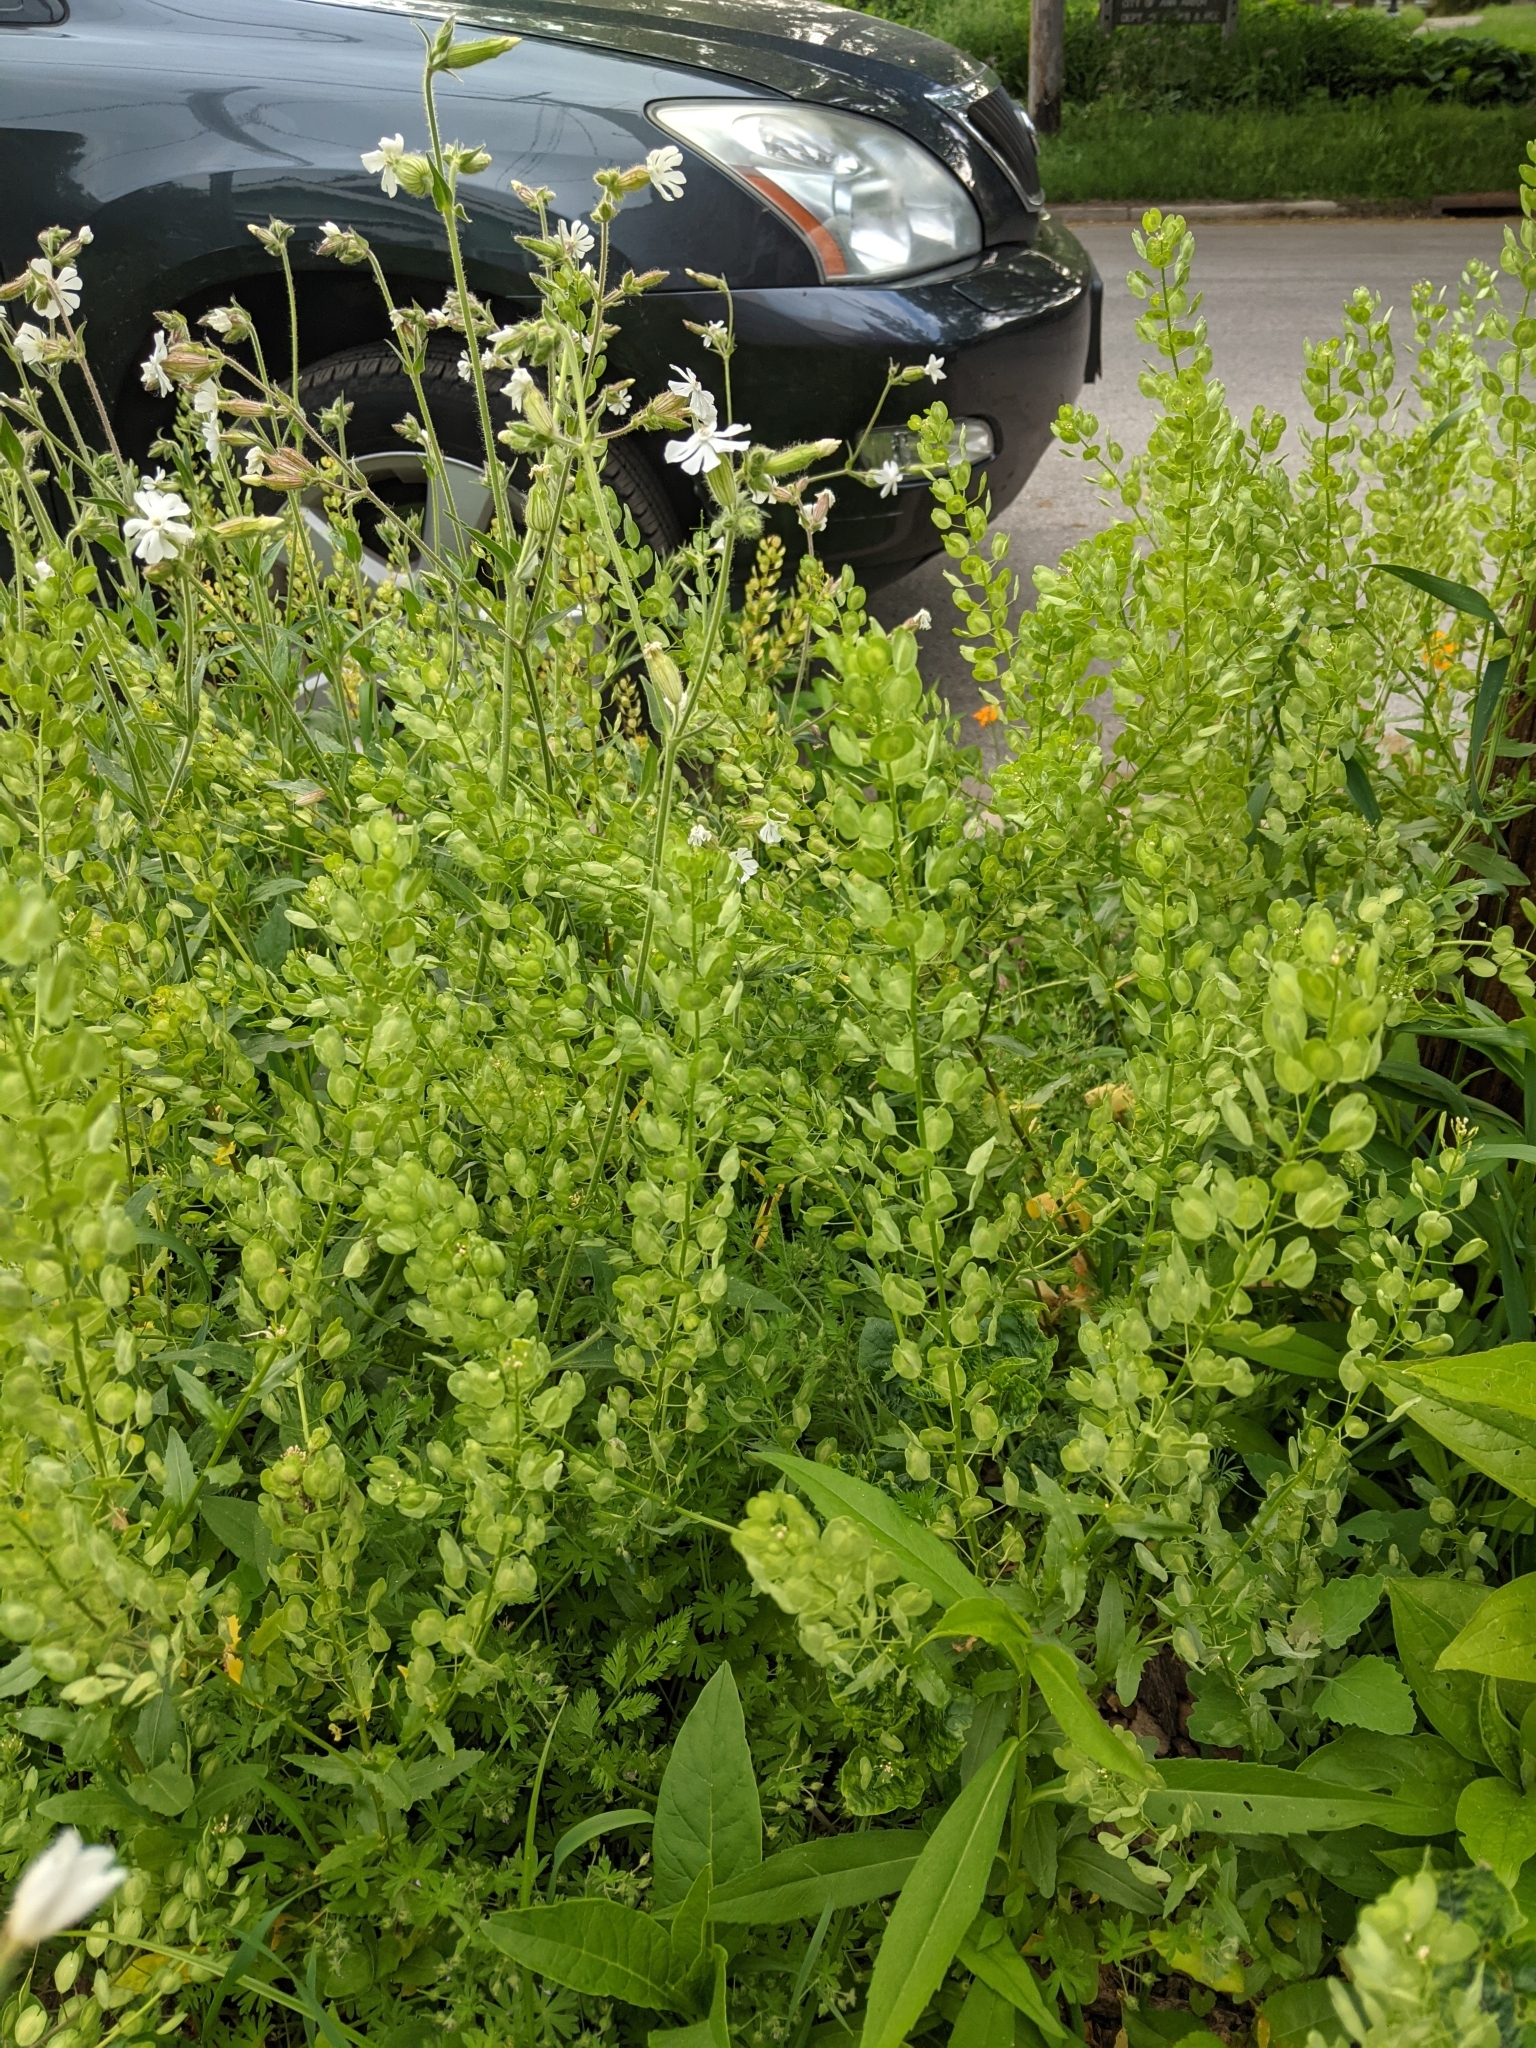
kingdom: Plantae
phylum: Tracheophyta
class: Magnoliopsida
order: Brassicales
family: Brassicaceae
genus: Thlaspi
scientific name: Thlaspi arvense
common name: Field pennycress
